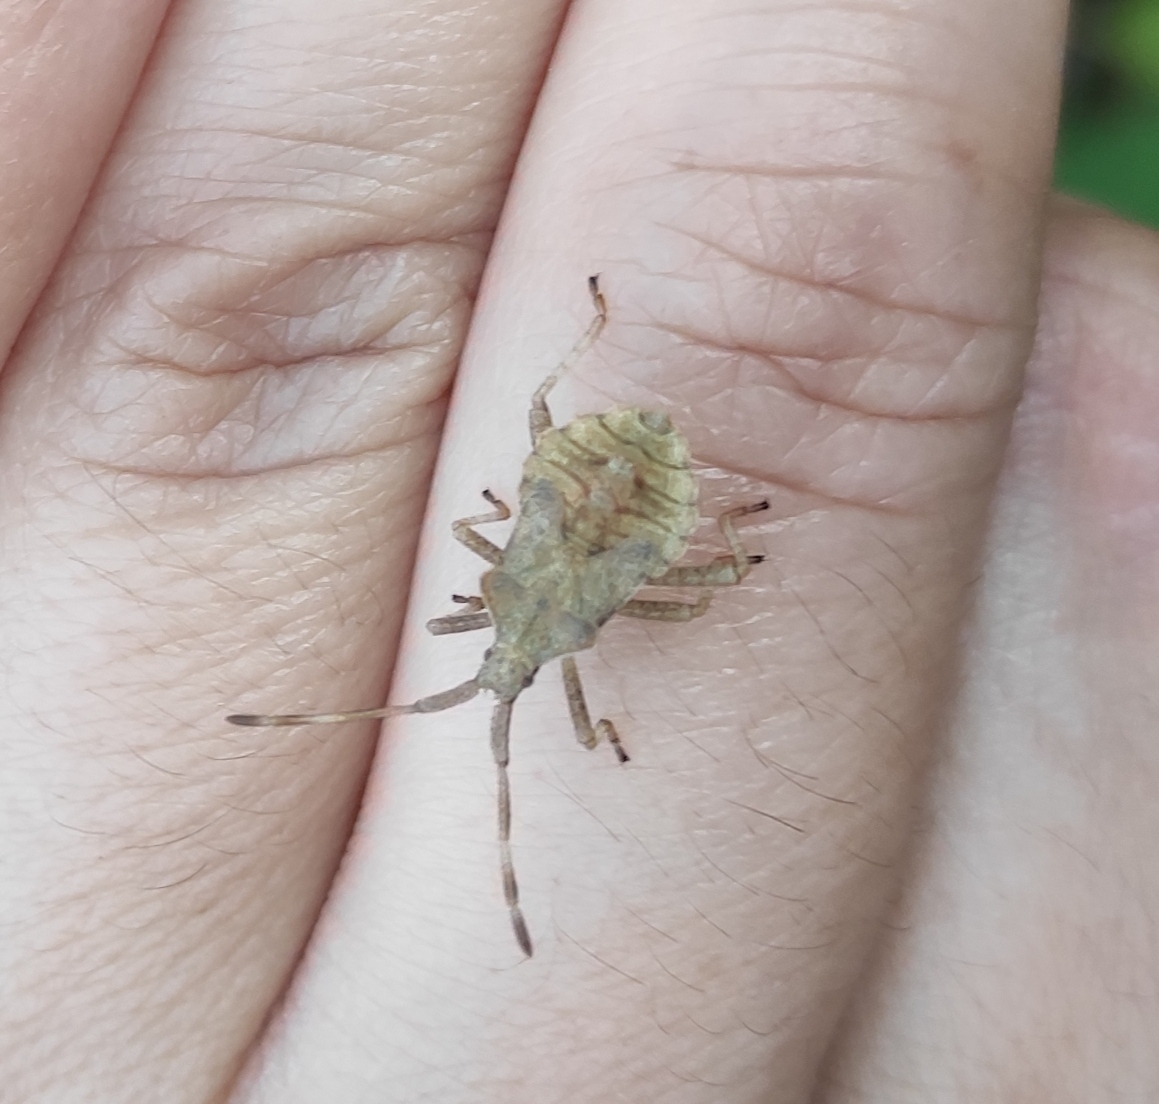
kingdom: Animalia
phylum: Arthropoda
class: Insecta
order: Hemiptera
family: Coreidae
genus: Coreus
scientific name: Coreus marginatus
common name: Dock bug
